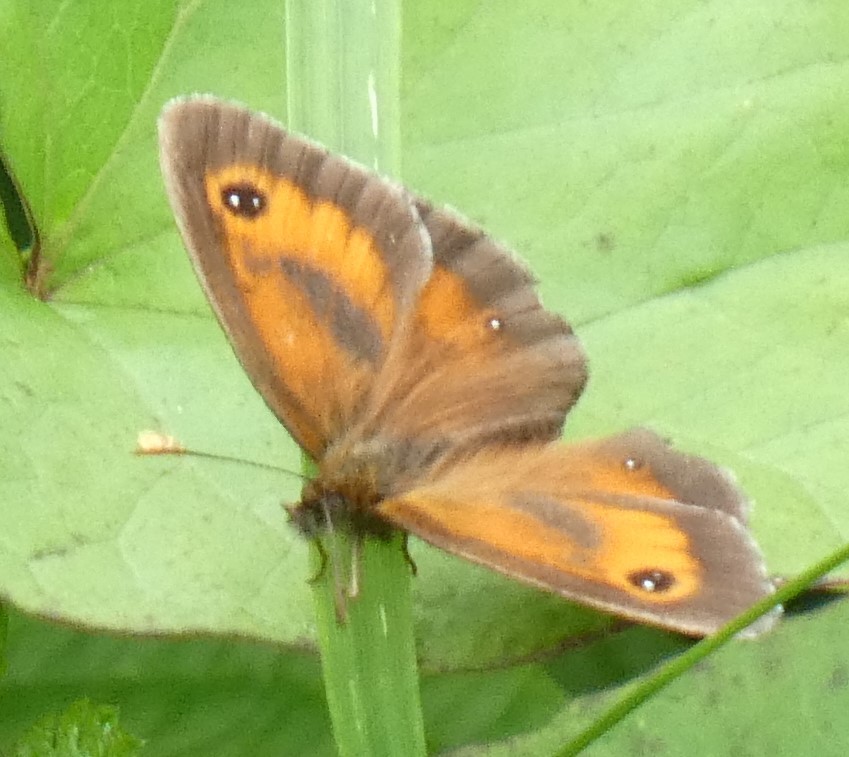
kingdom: Animalia
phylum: Arthropoda
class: Insecta
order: Lepidoptera
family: Nymphalidae
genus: Pyronia
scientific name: Pyronia tithonus
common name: Gatekeeper
